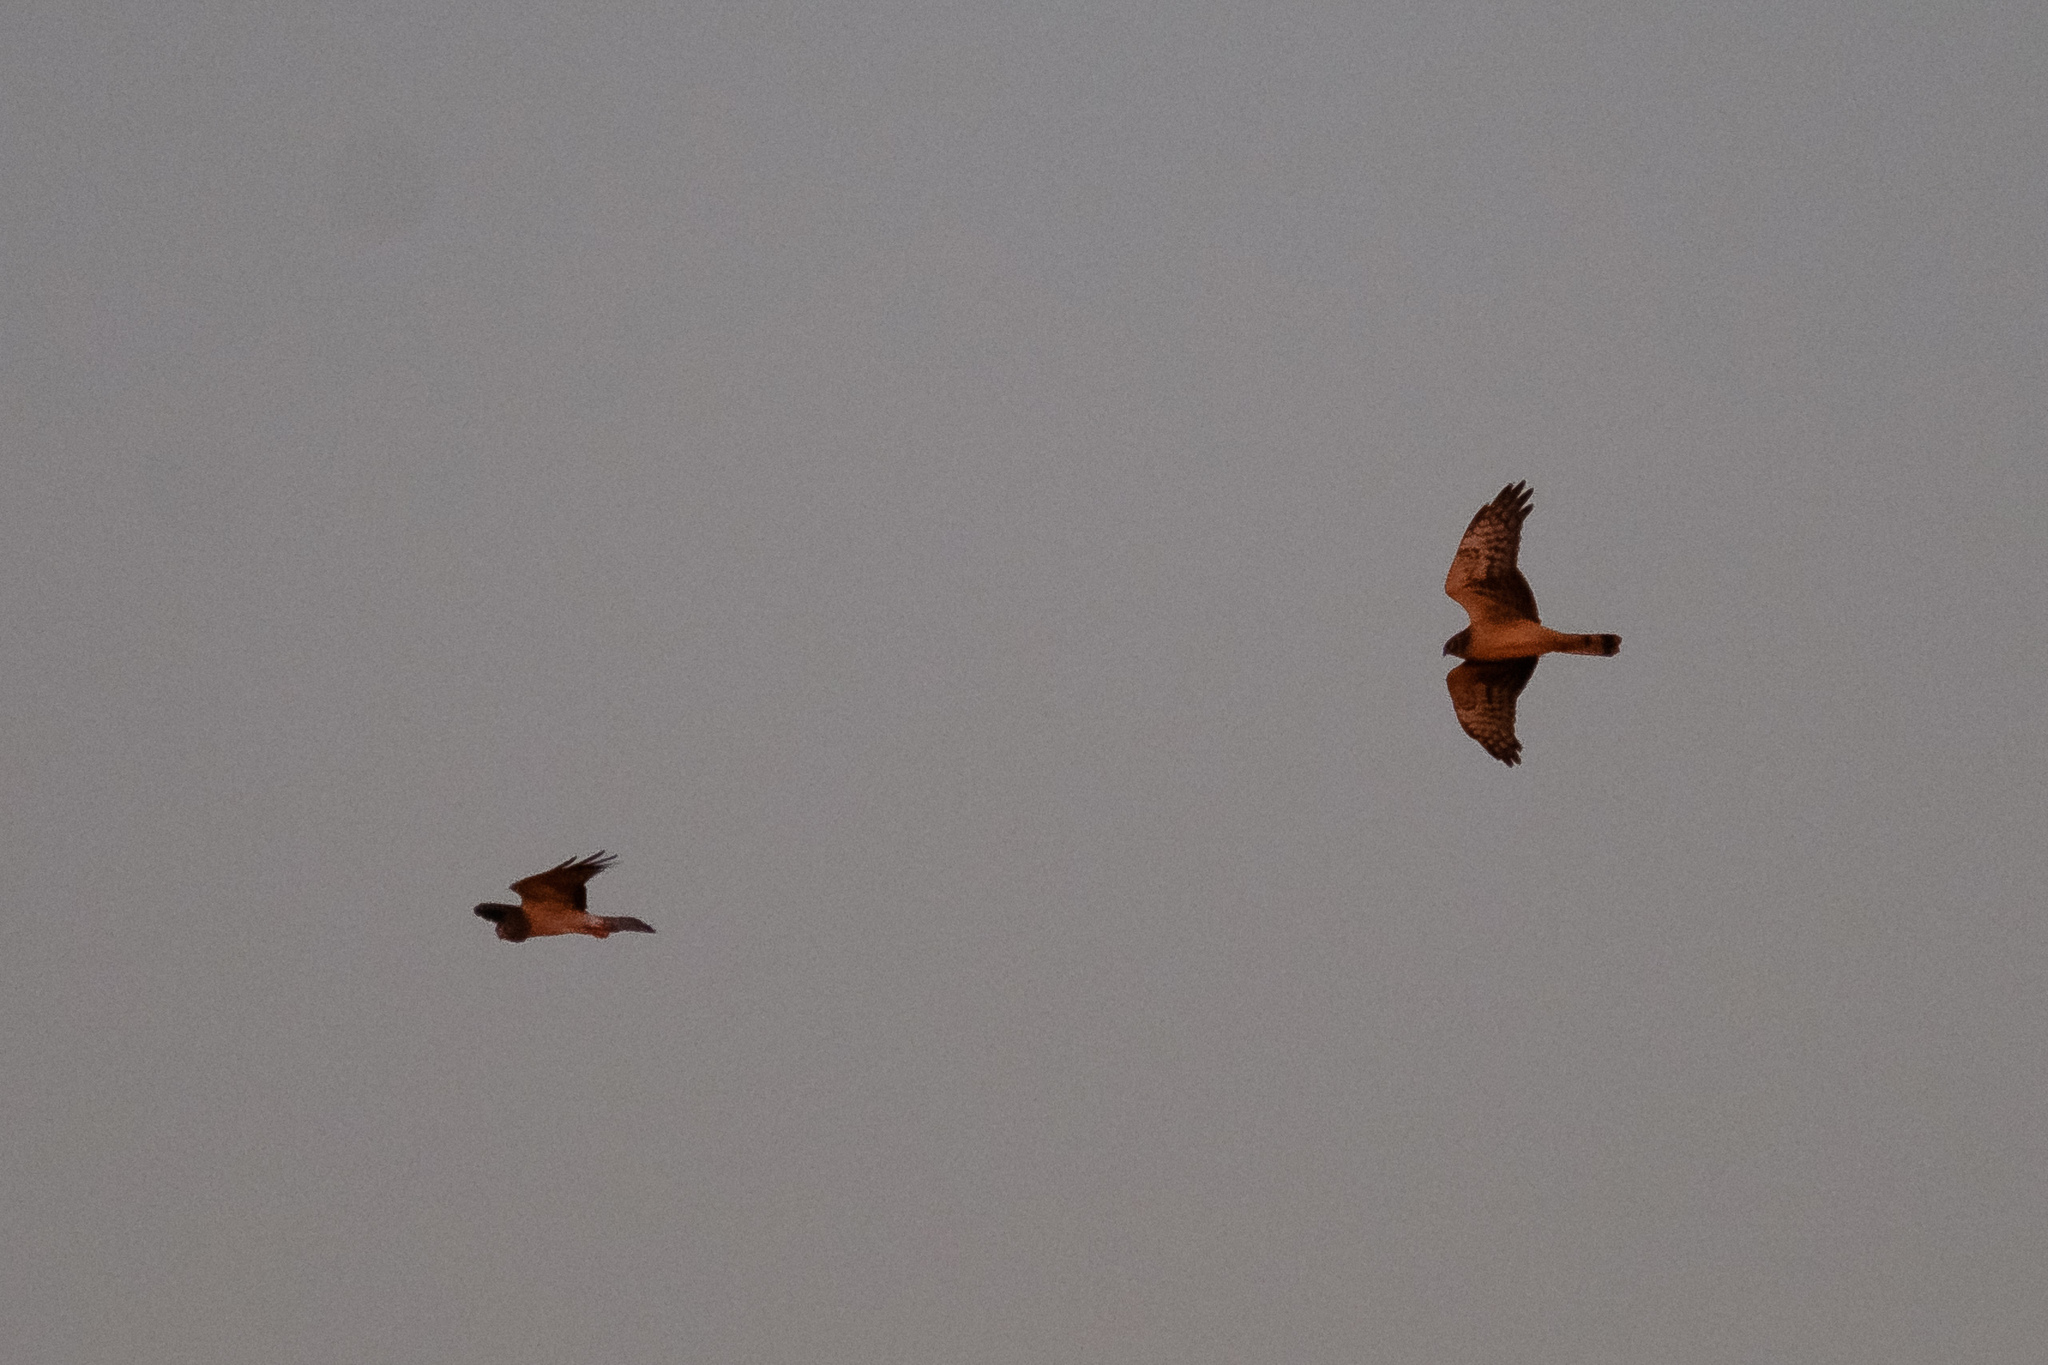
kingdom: Animalia
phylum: Chordata
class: Aves
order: Accipitriformes
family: Accipitridae
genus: Circus
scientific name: Circus cyaneus
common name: Hen harrier
